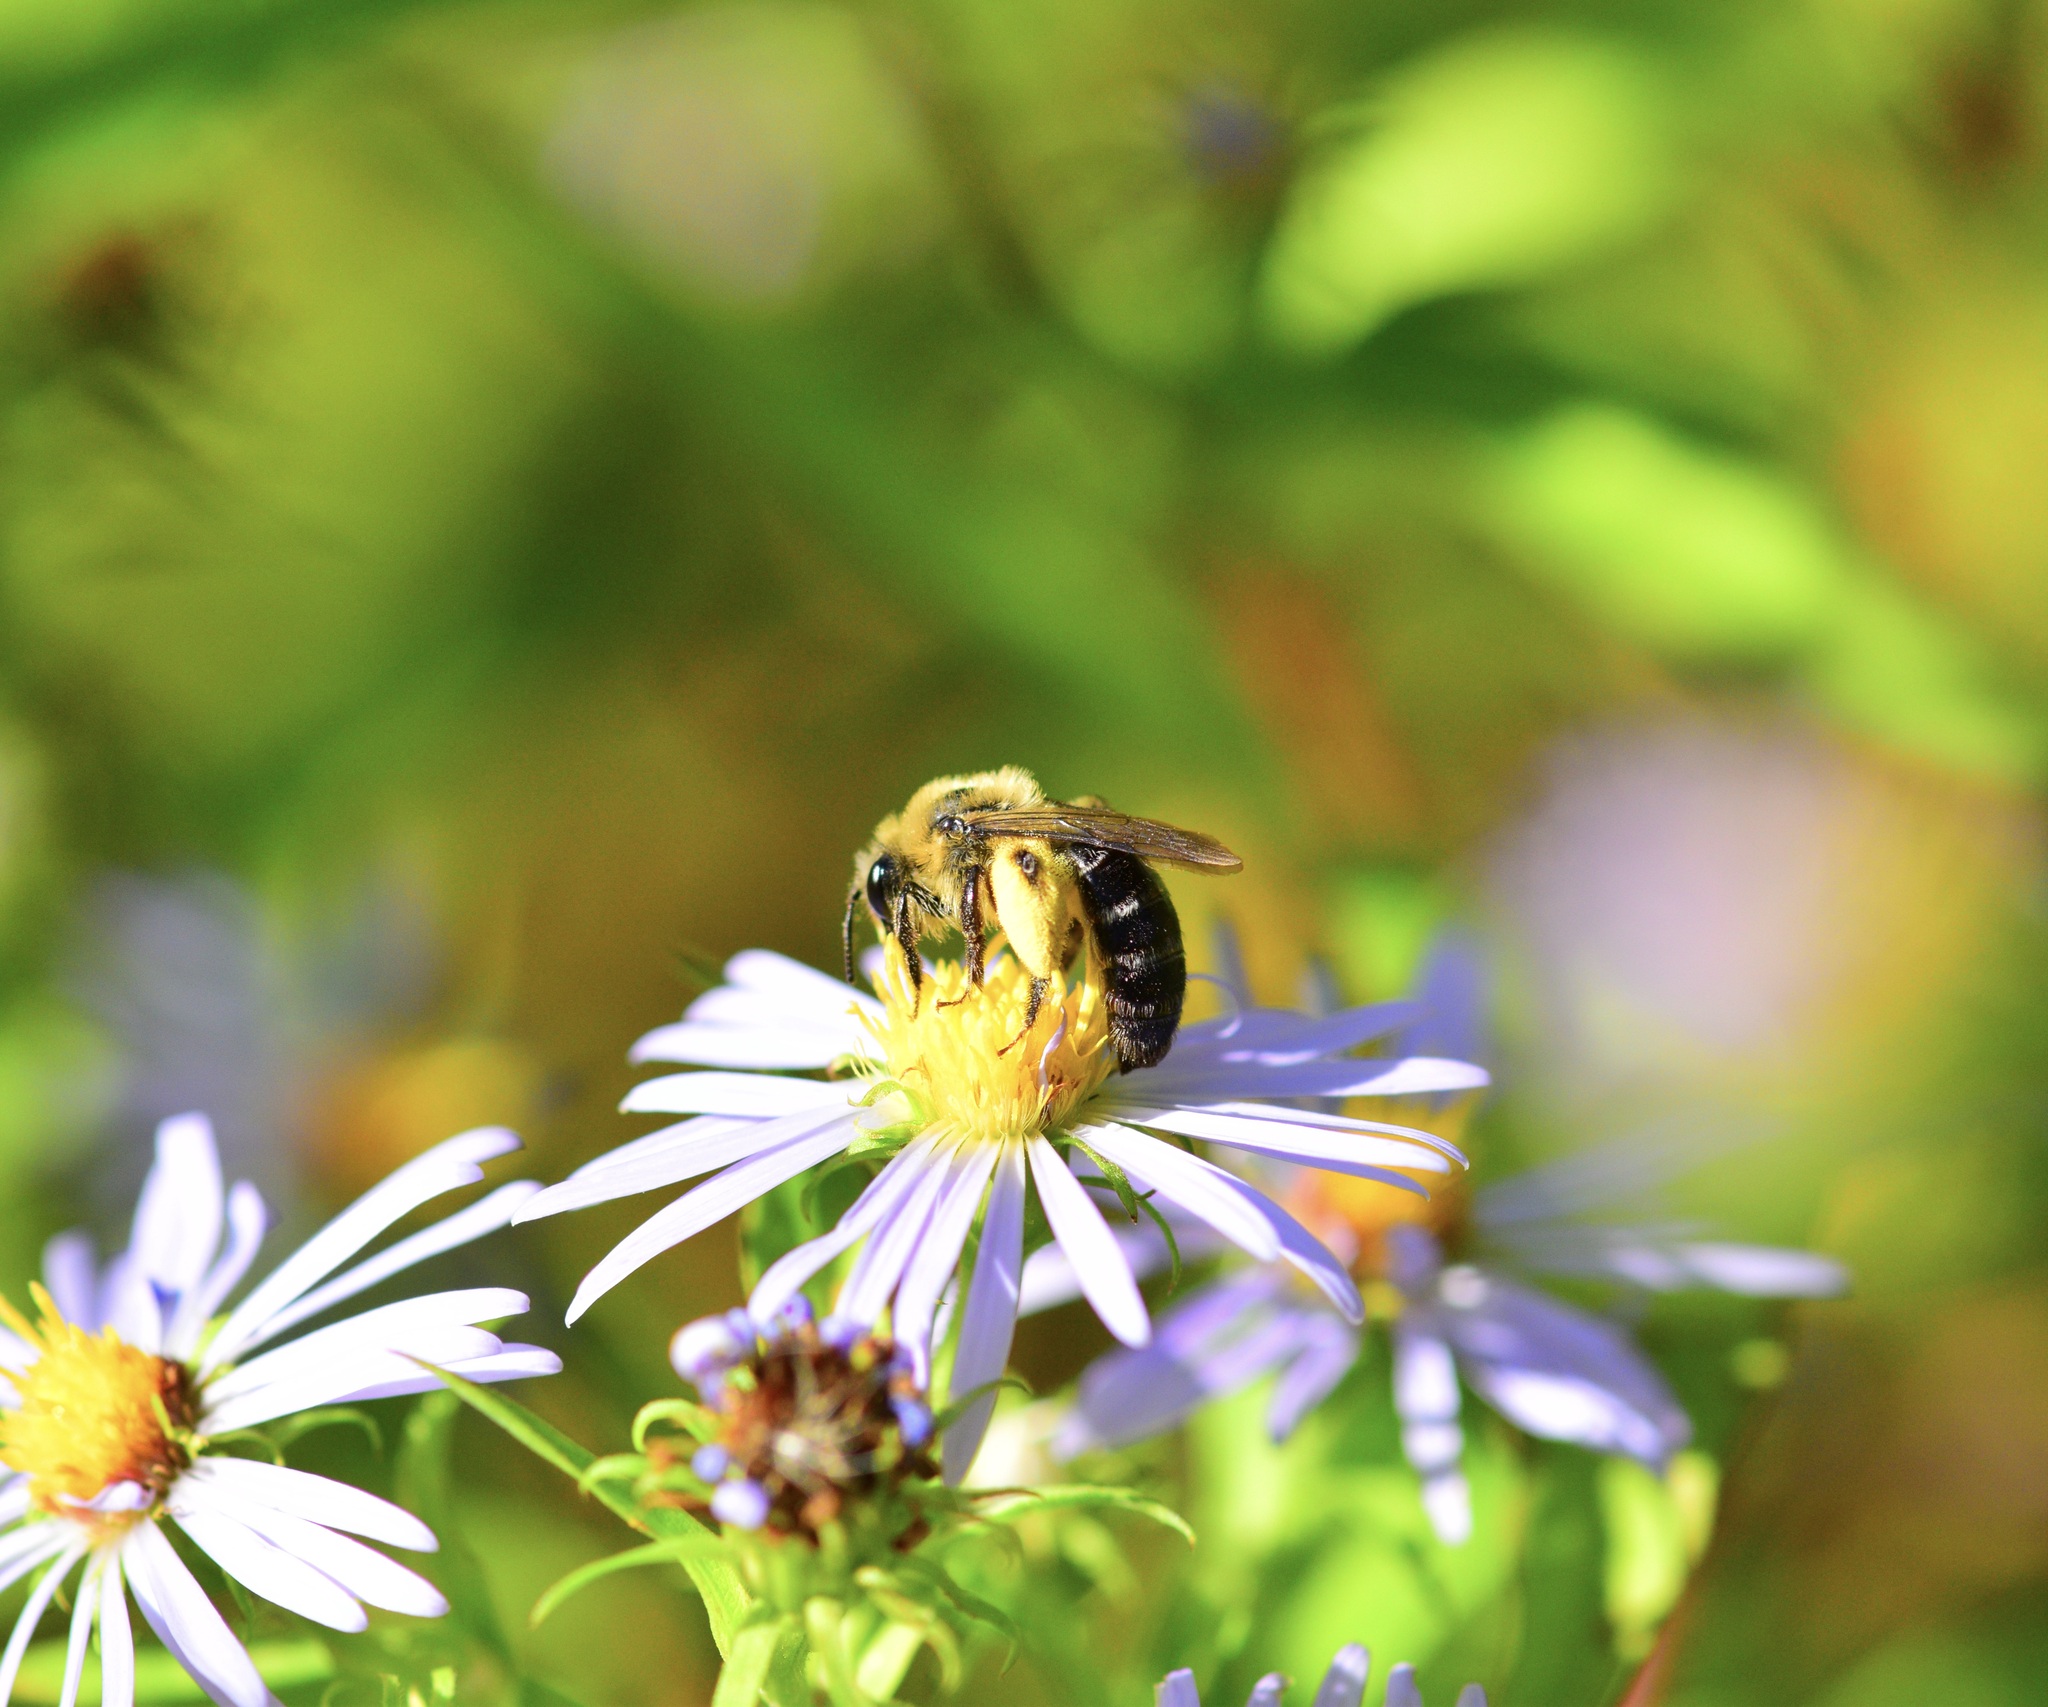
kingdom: Animalia
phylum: Arthropoda
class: Insecta
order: Hymenoptera
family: Andrenidae
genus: Andrena
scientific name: Andrena asteris
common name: Aster mining bee
